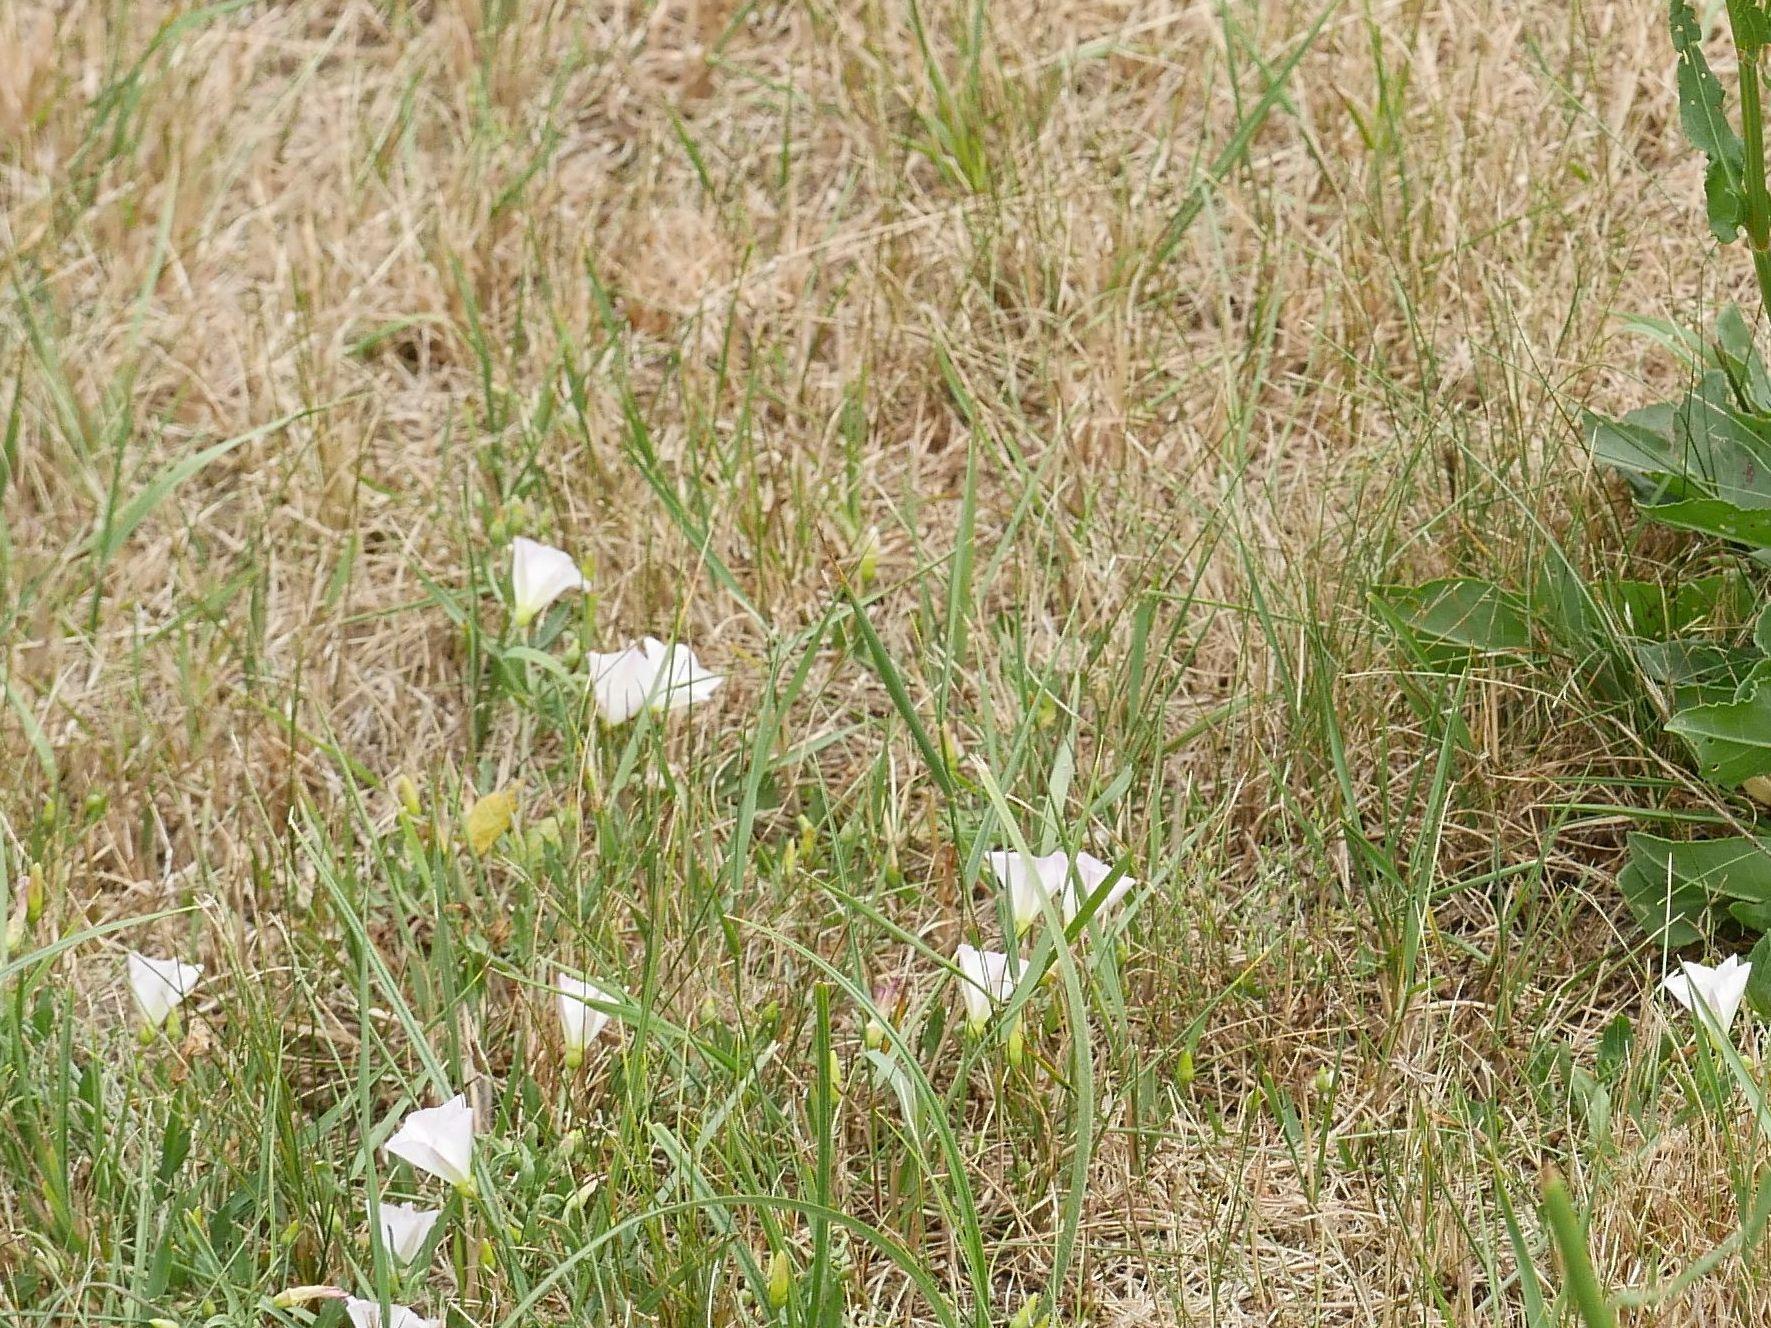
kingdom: Plantae
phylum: Tracheophyta
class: Magnoliopsida
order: Solanales
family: Convolvulaceae
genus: Convolvulus
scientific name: Convolvulus arvensis
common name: Field bindweed
